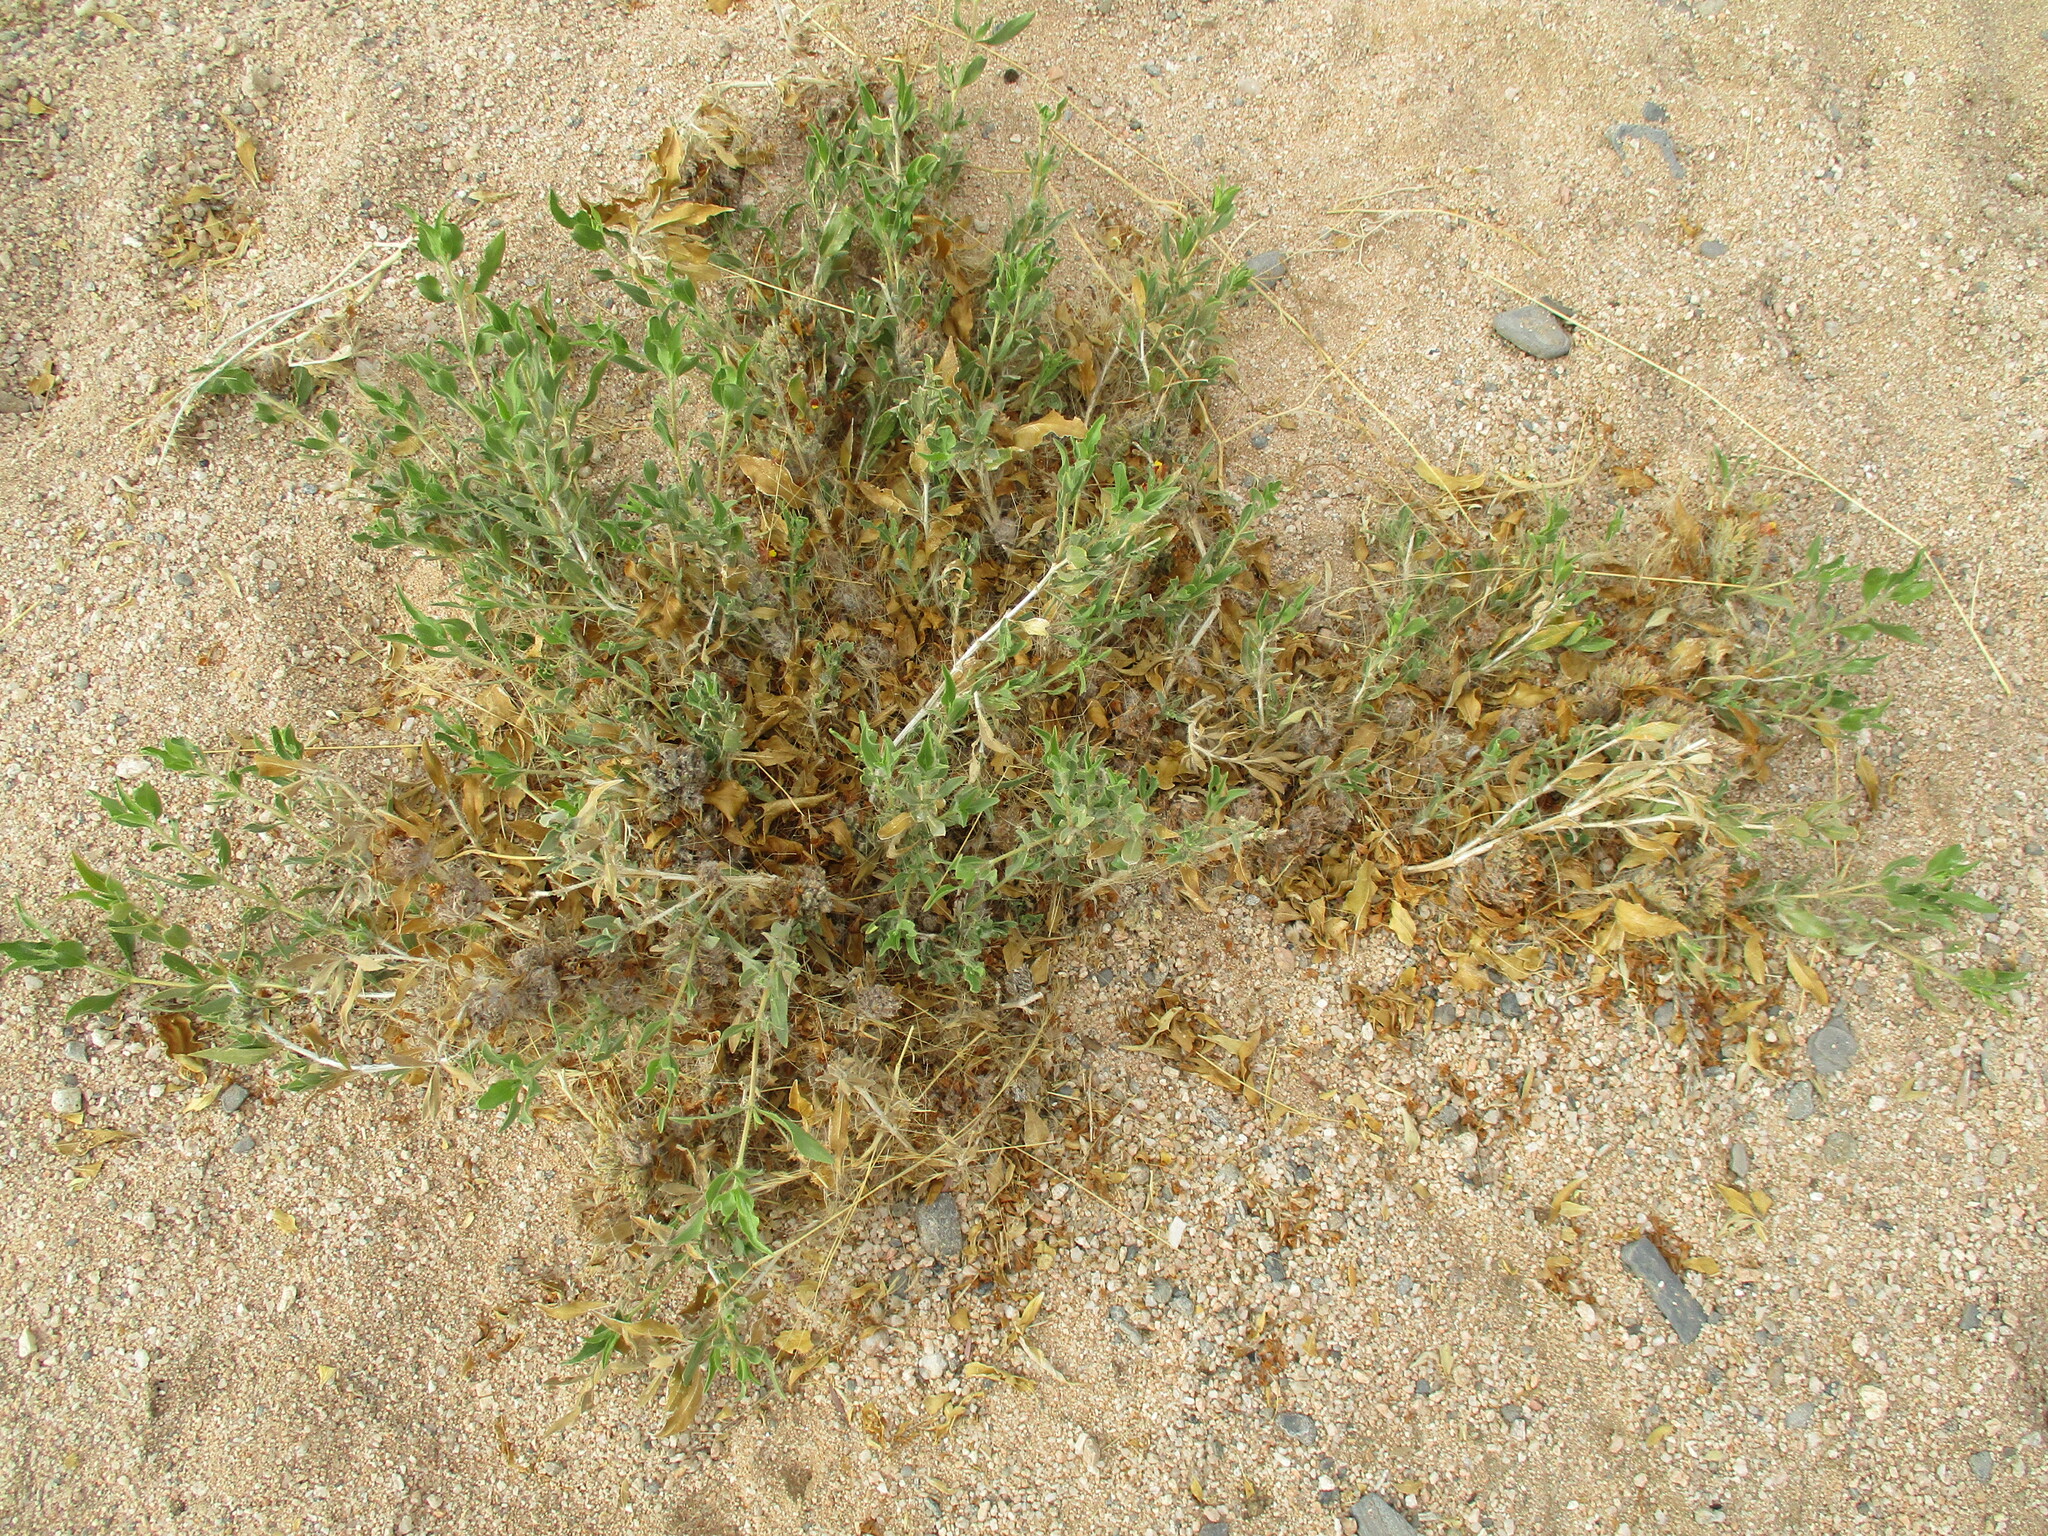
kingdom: Plantae
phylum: Tracheophyta
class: Magnoliopsida
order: Lamiales
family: Acanthaceae
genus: Petalidium
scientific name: Petalidium setosum
